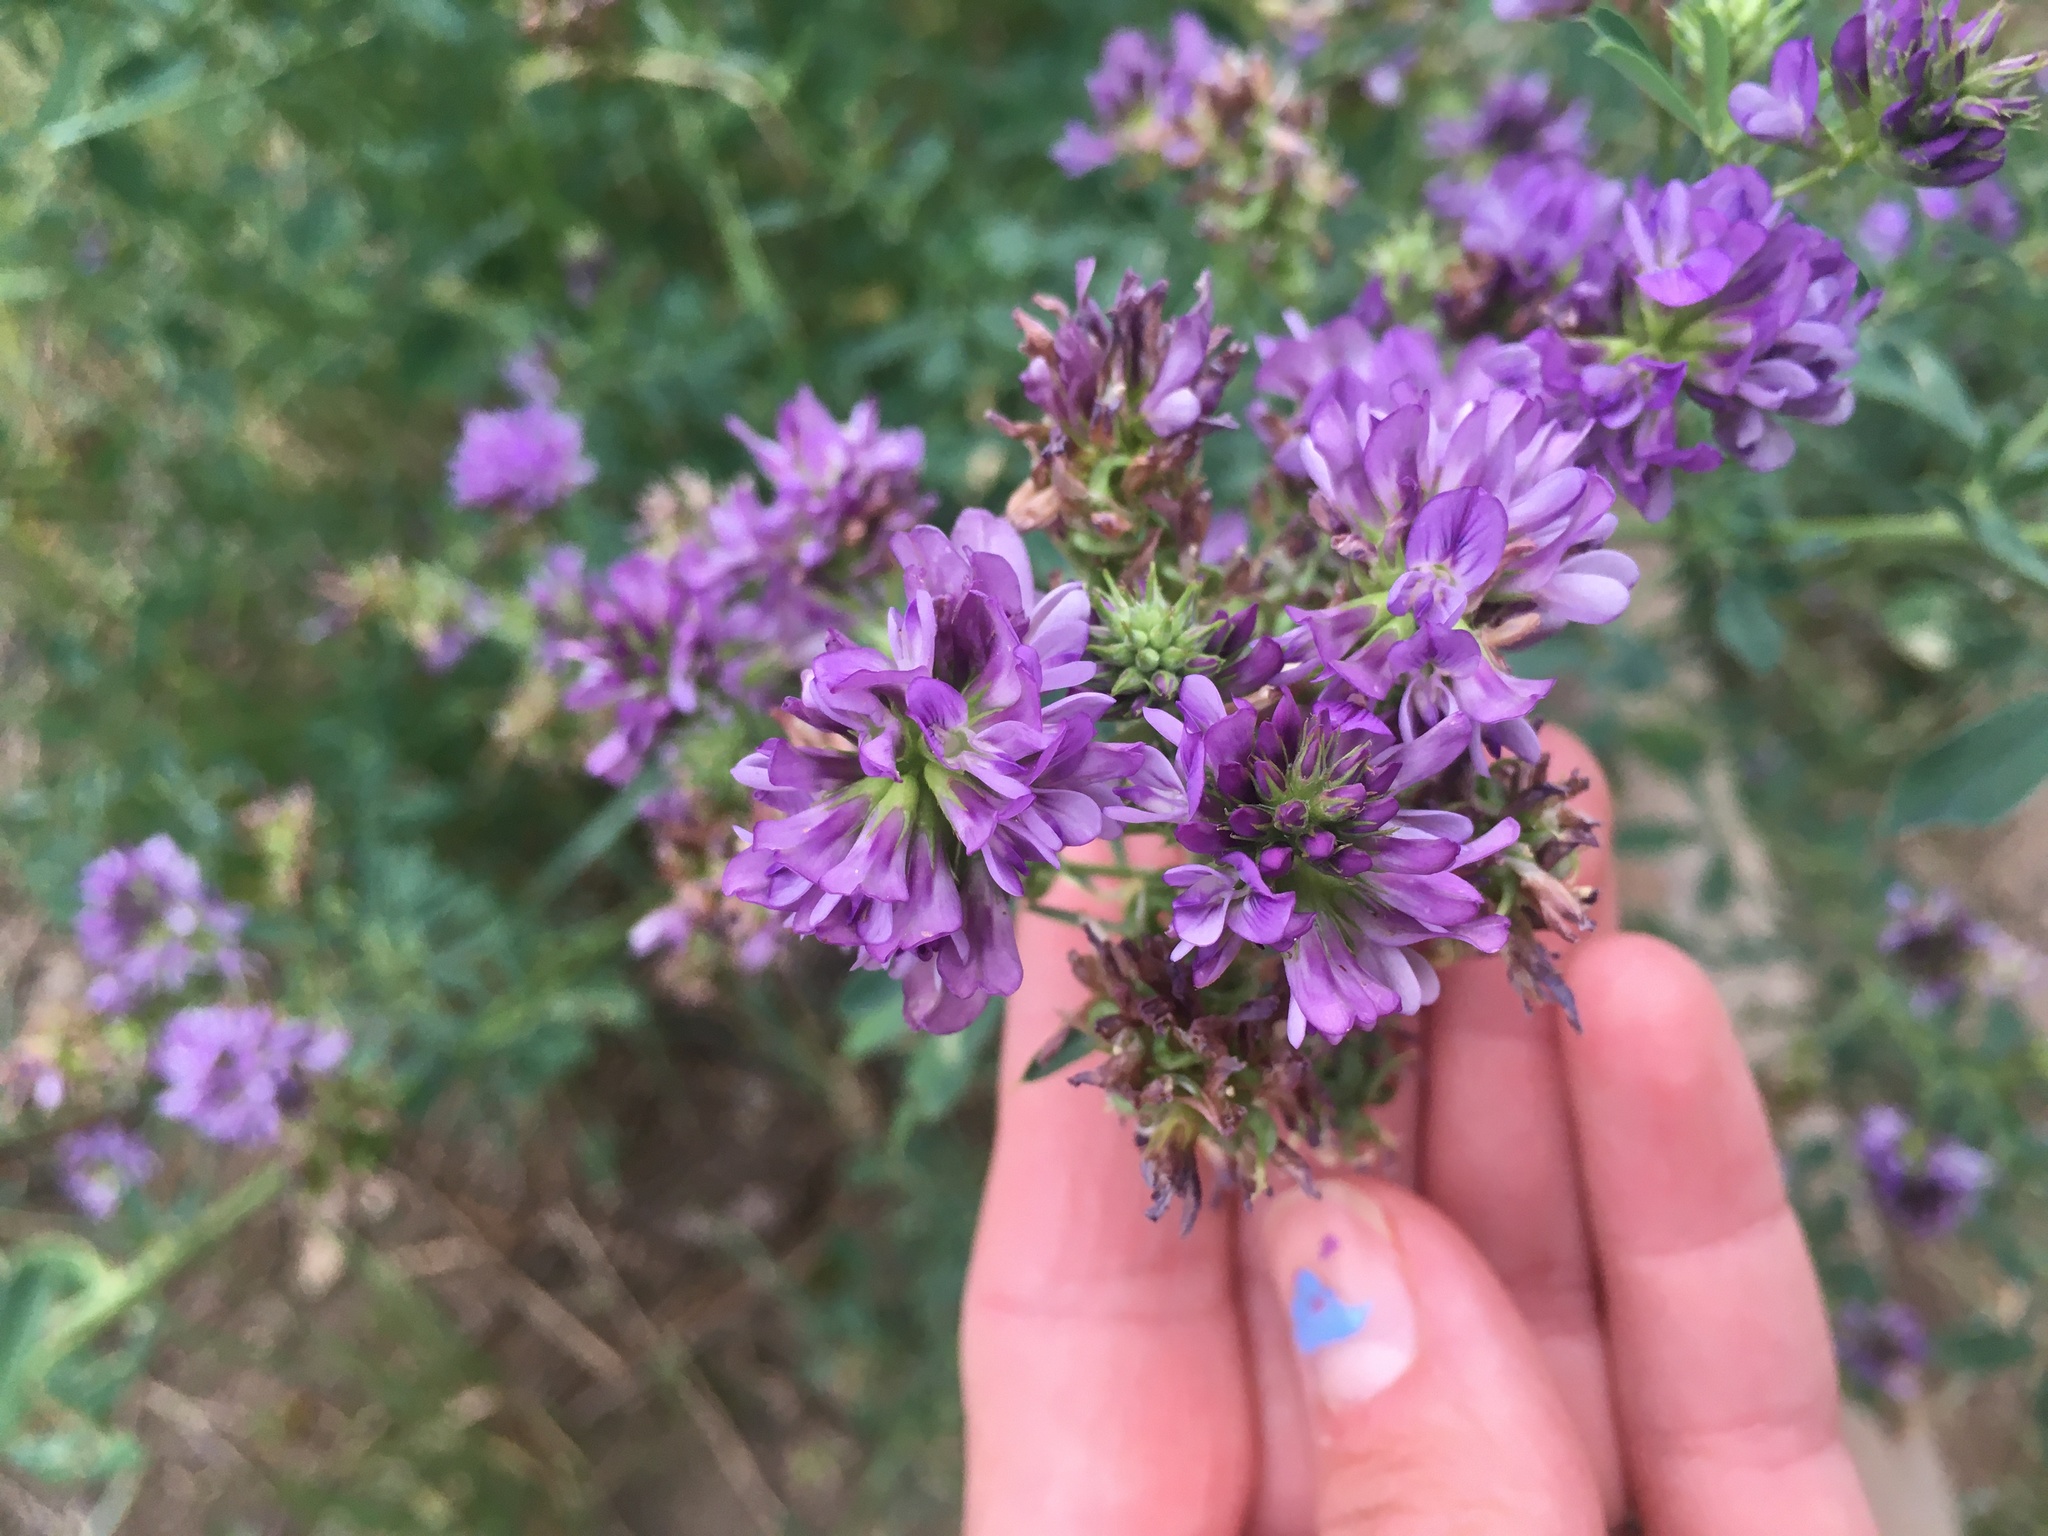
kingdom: Plantae
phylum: Tracheophyta
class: Magnoliopsida
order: Fabales
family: Fabaceae
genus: Medicago
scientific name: Medicago sativa
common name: Alfalfa
